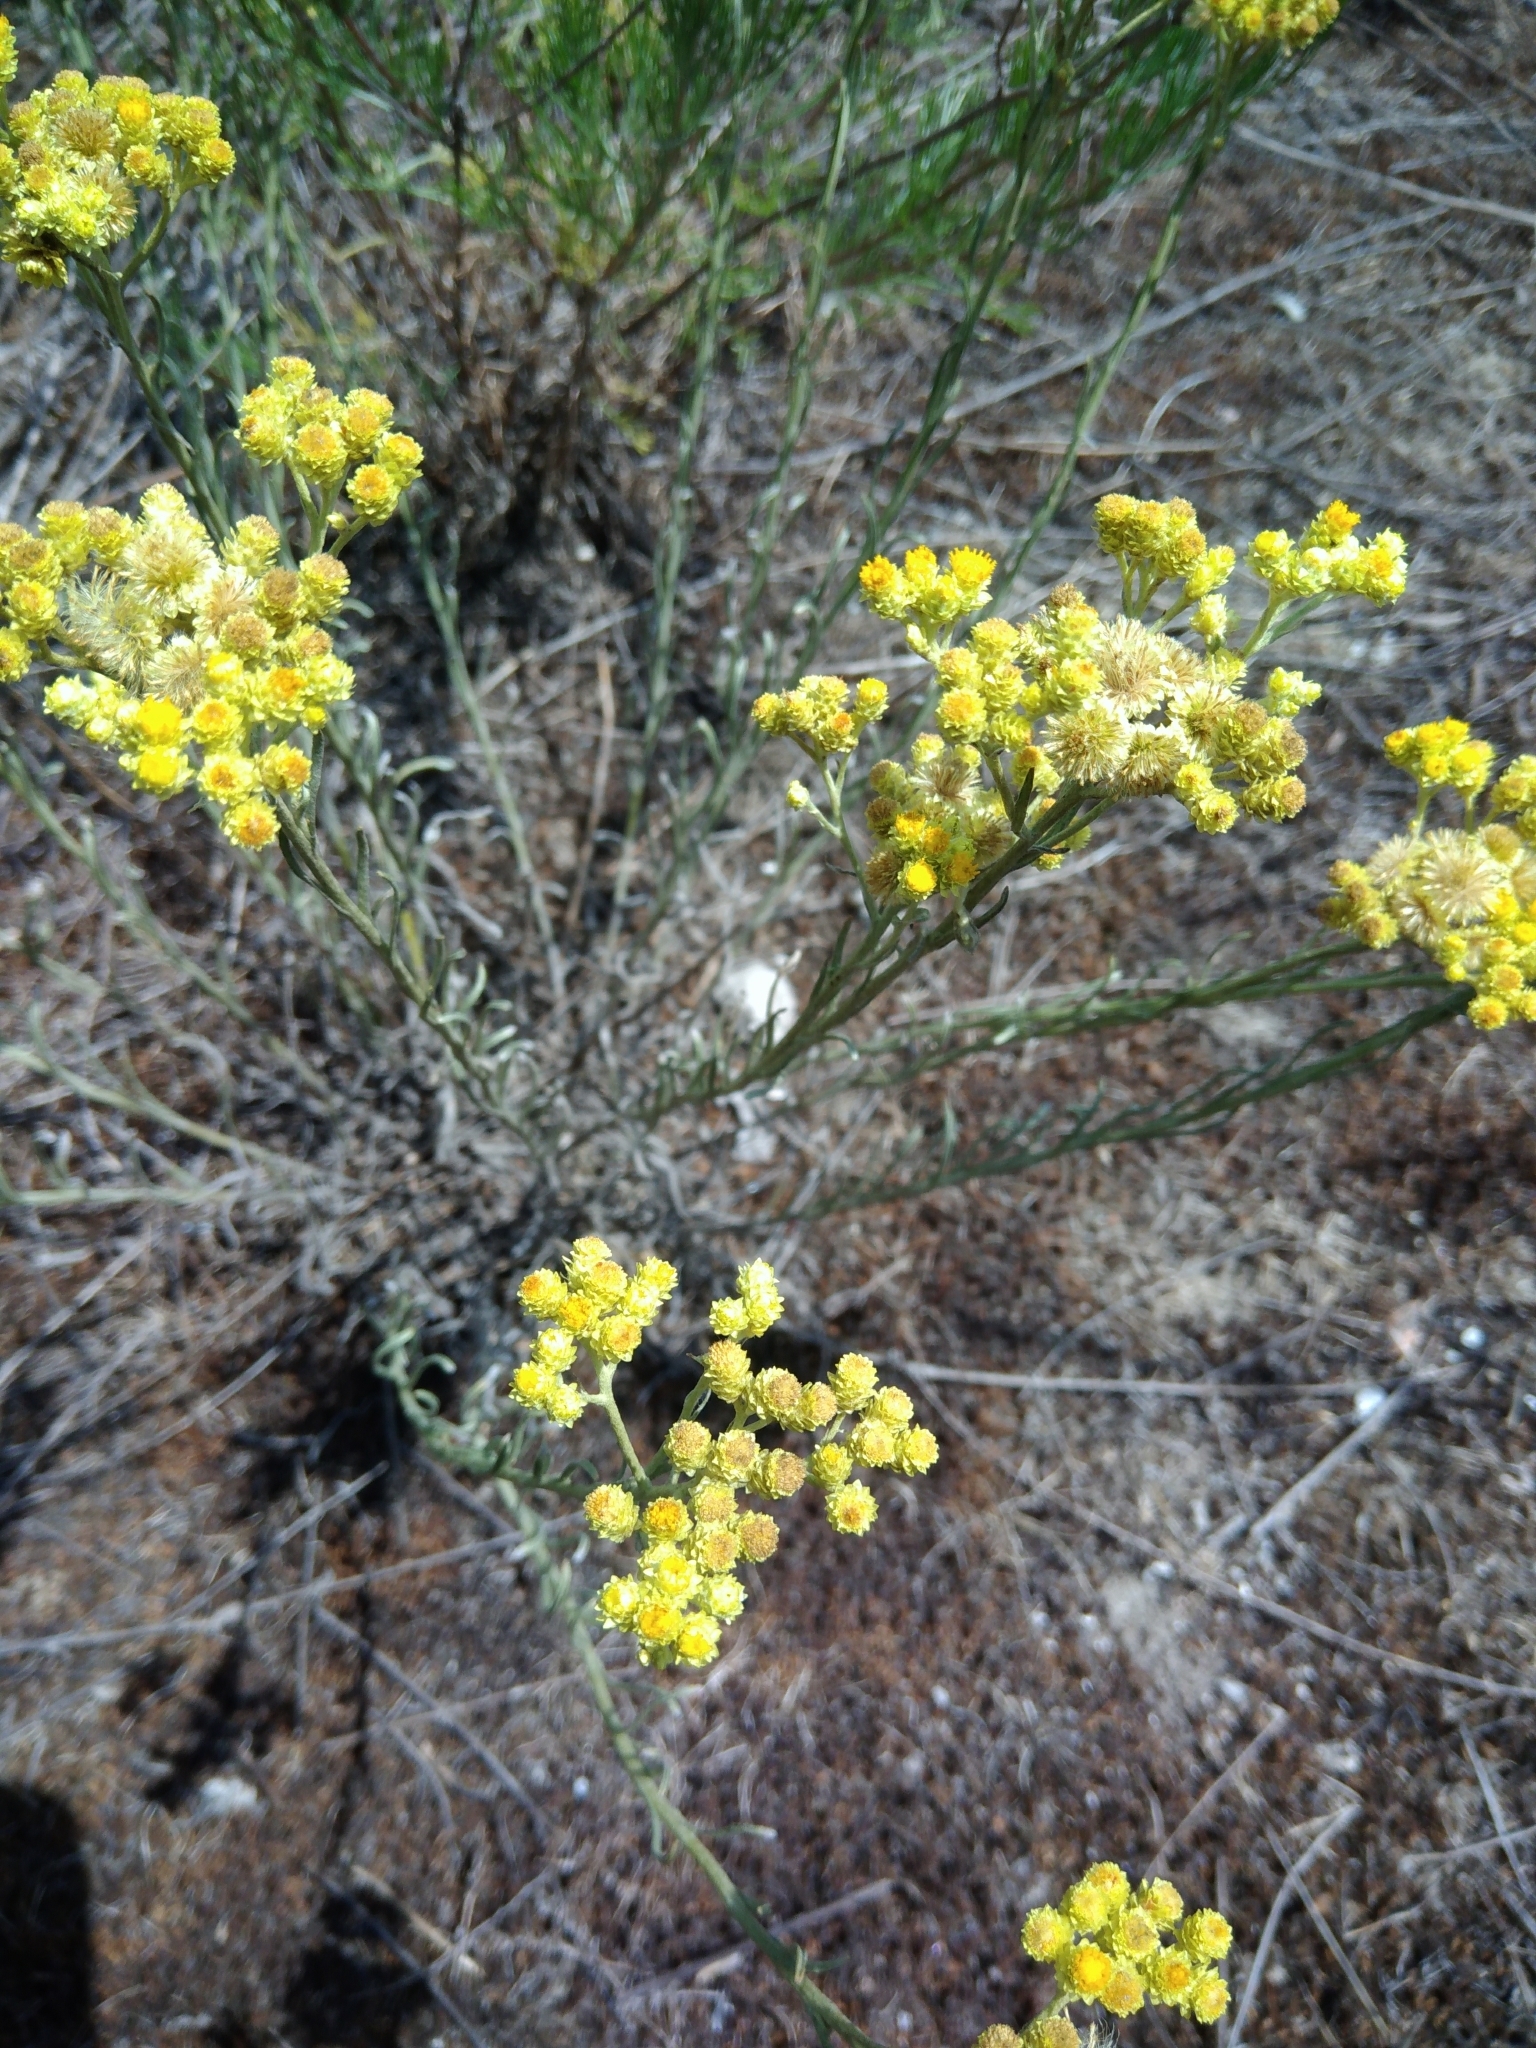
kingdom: Plantae
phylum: Tracheophyta
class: Magnoliopsida
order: Asterales
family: Asteraceae
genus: Helichrysum
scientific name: Helichrysum arenarium
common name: Strawflower
